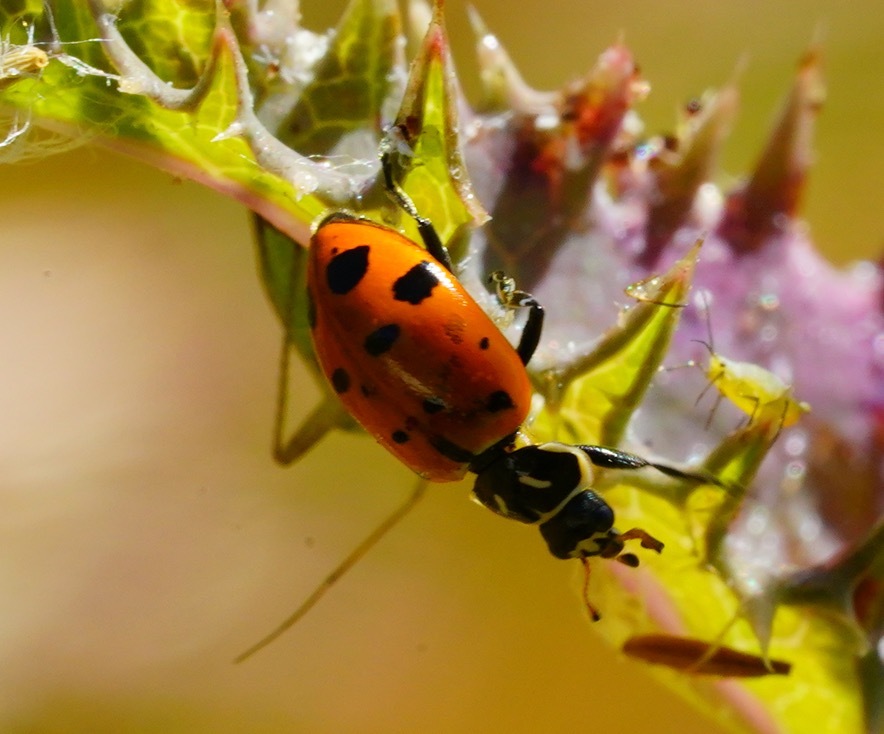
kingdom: Animalia
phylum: Arthropoda
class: Insecta
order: Coleoptera
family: Coccinellidae
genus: Hippodamia
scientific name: Hippodamia convergens
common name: Convergent lady beetle
